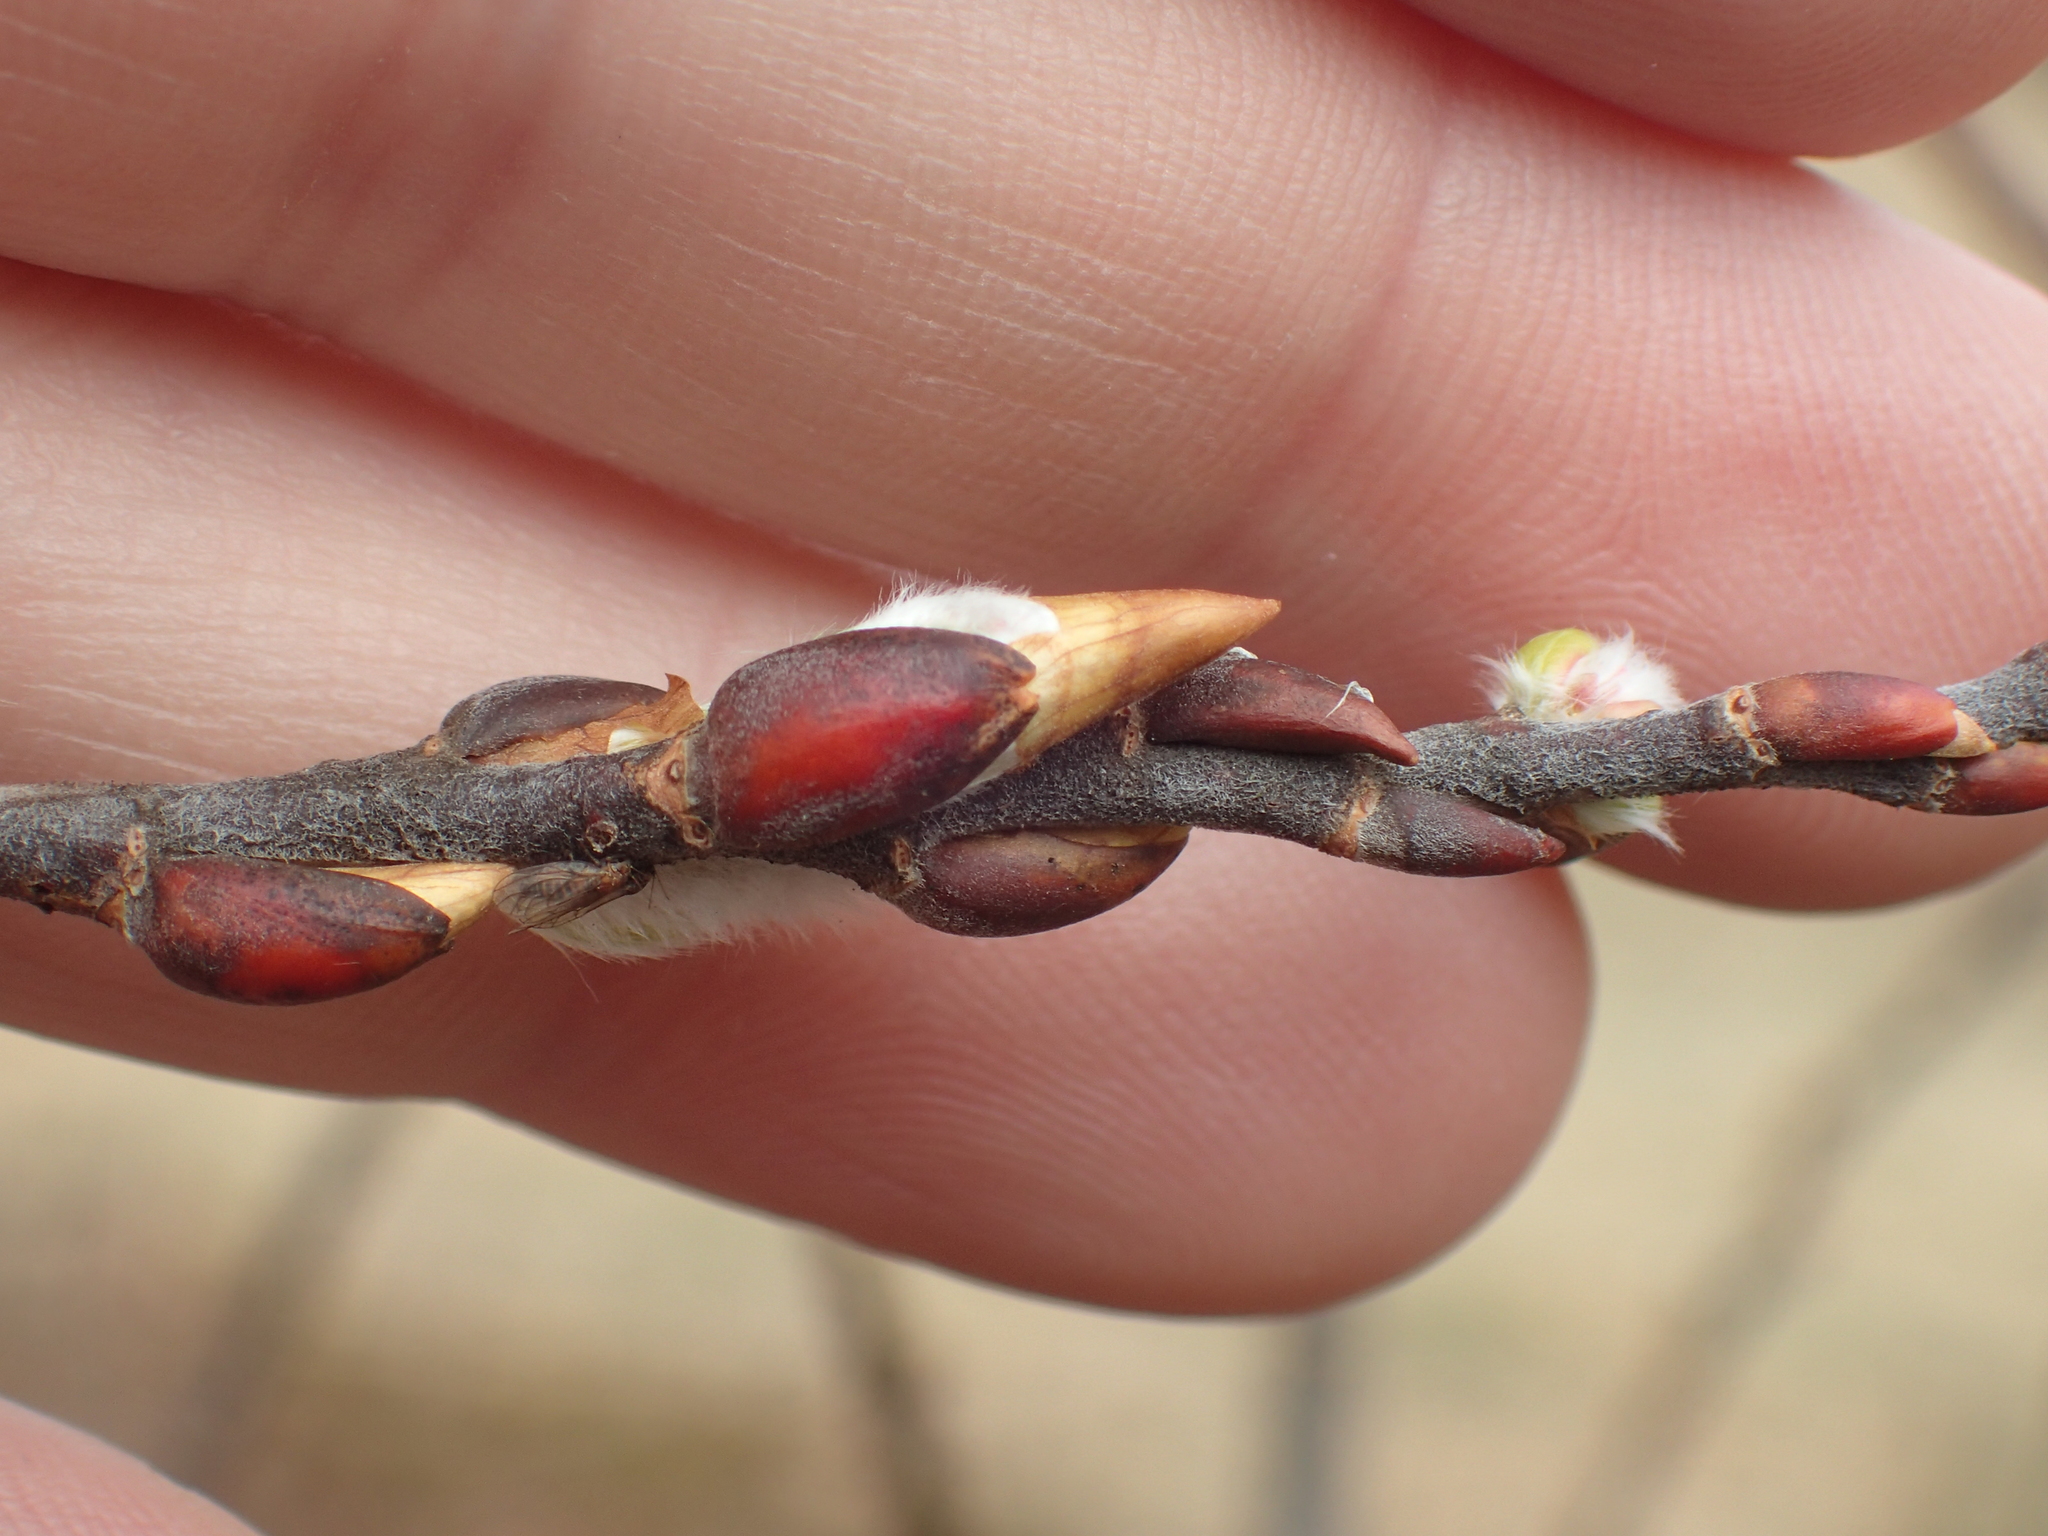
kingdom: Plantae
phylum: Tracheophyta
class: Magnoliopsida
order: Malpighiales
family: Salicaceae
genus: Salix
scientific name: Salix eriocephala
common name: Heart-leaved willow
